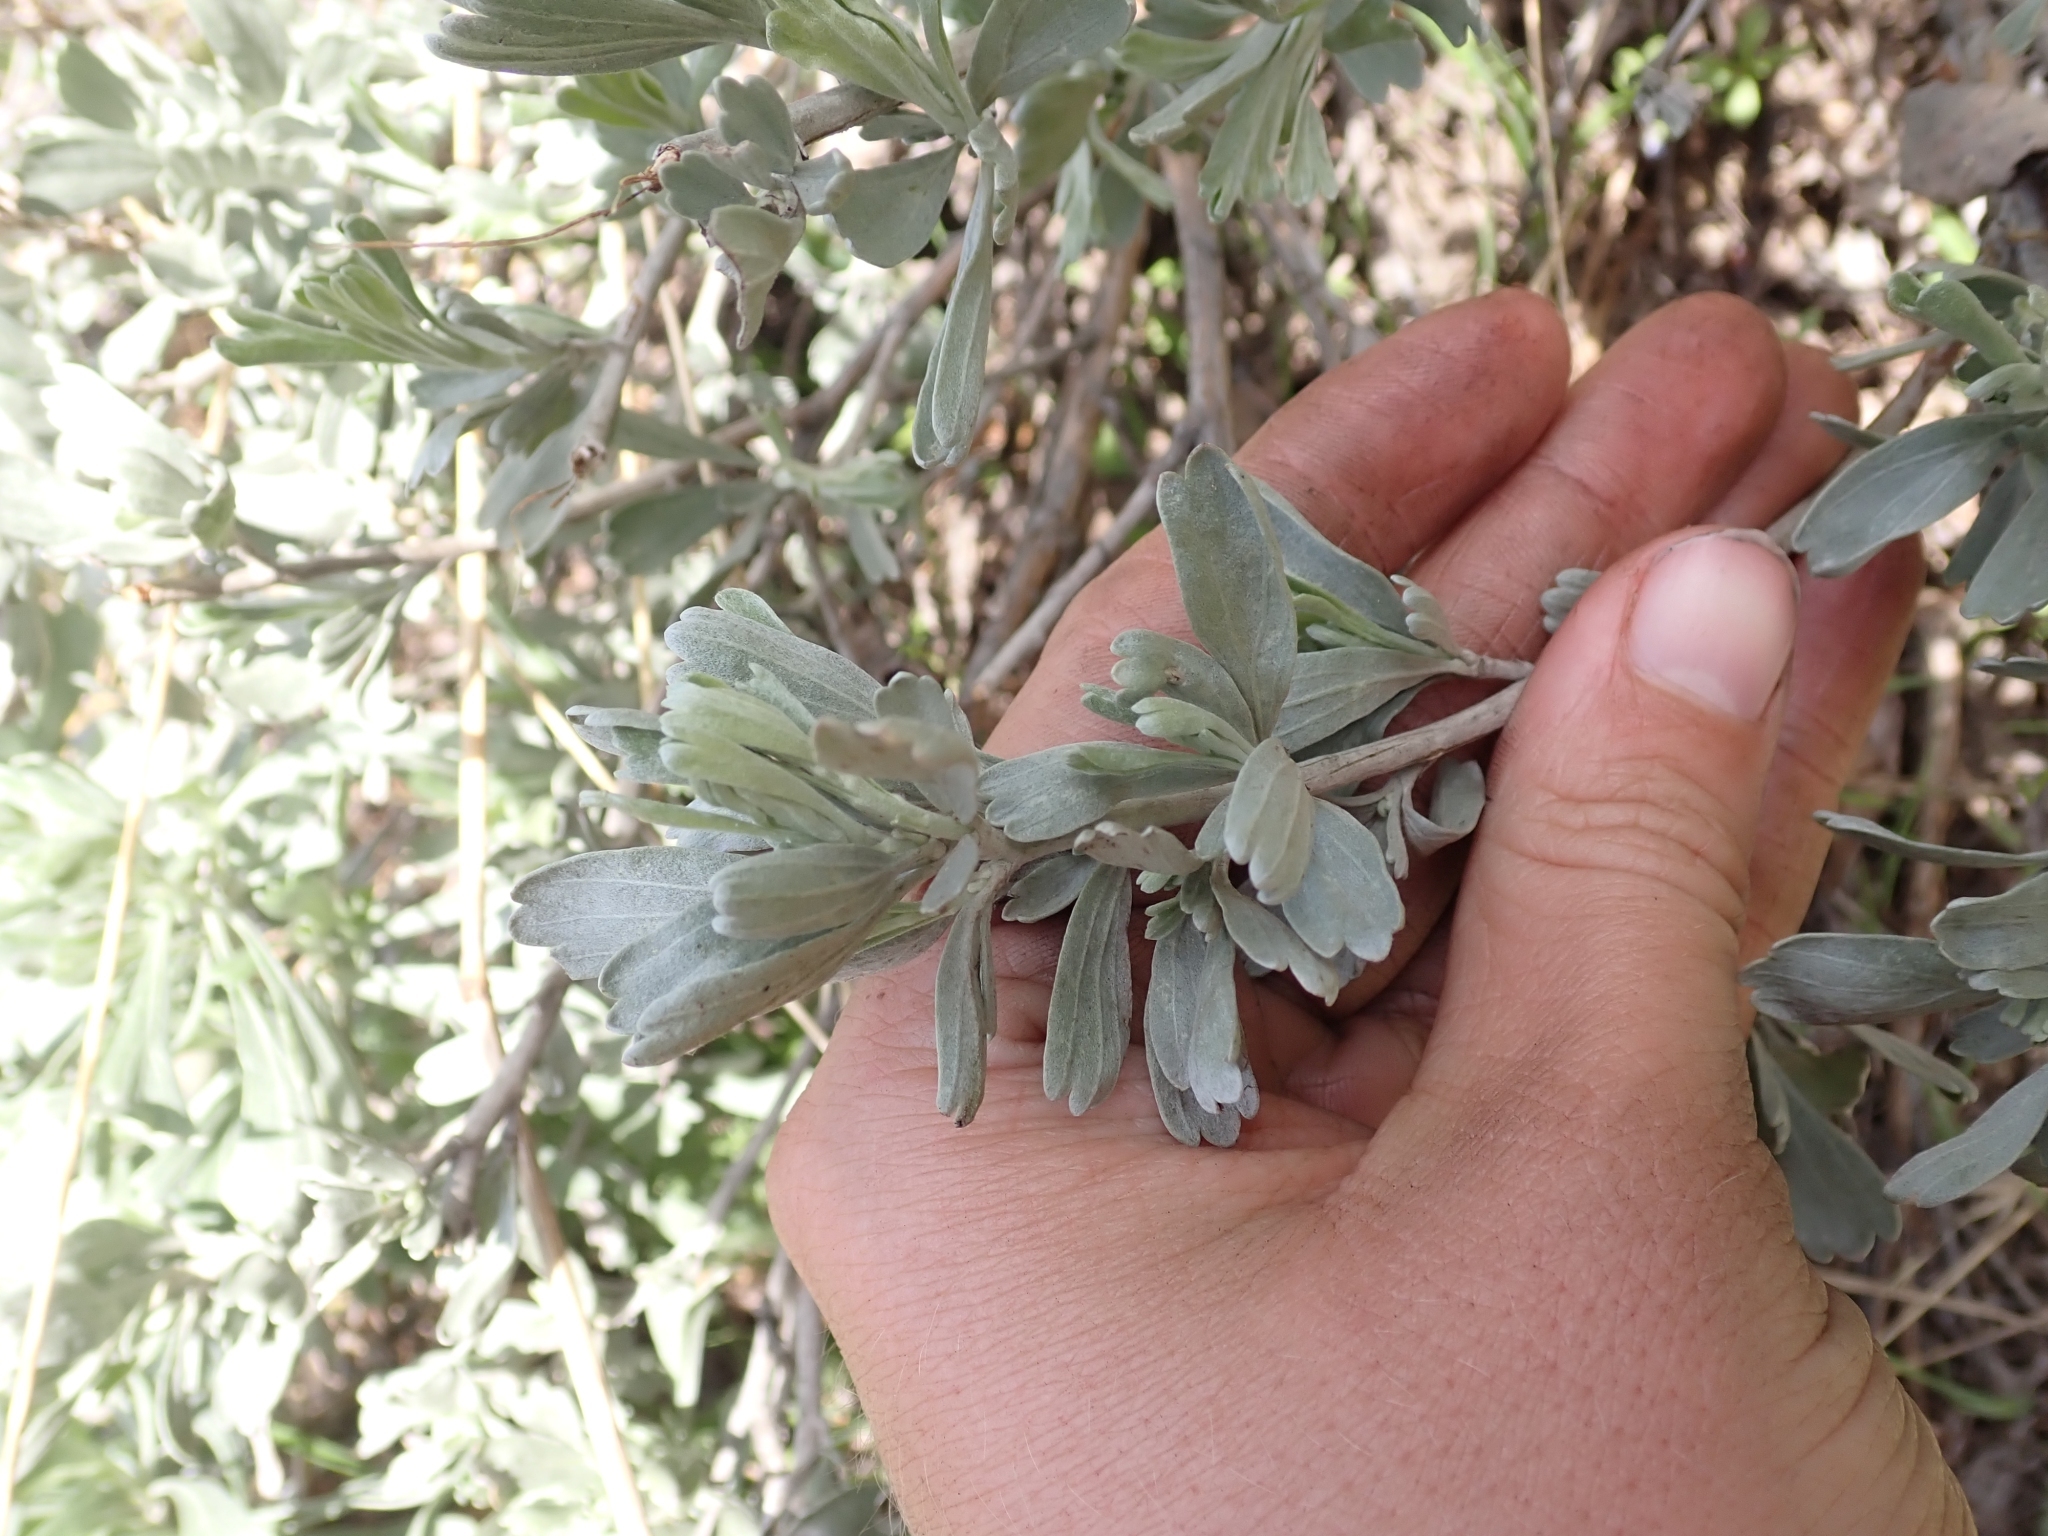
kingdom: Plantae
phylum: Tracheophyta
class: Magnoliopsida
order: Asterales
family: Asteraceae
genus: Artemisia
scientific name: Artemisia tridentata
